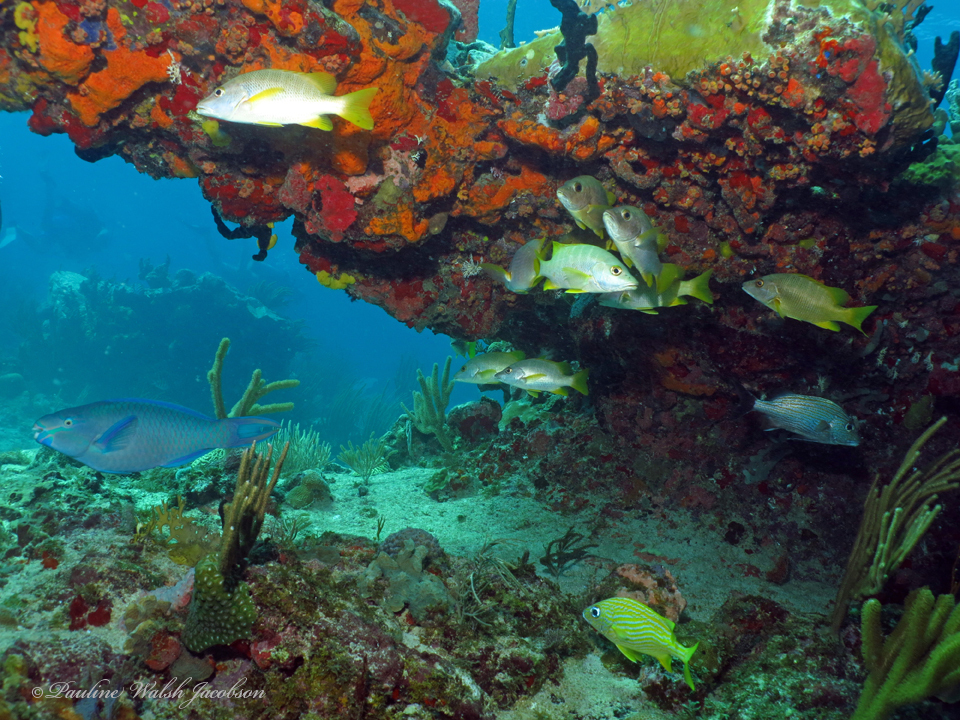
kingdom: Animalia
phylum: Chordata
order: Perciformes
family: Lutjanidae
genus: Lutjanus
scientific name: Lutjanus apodus
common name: Schoolmaster
